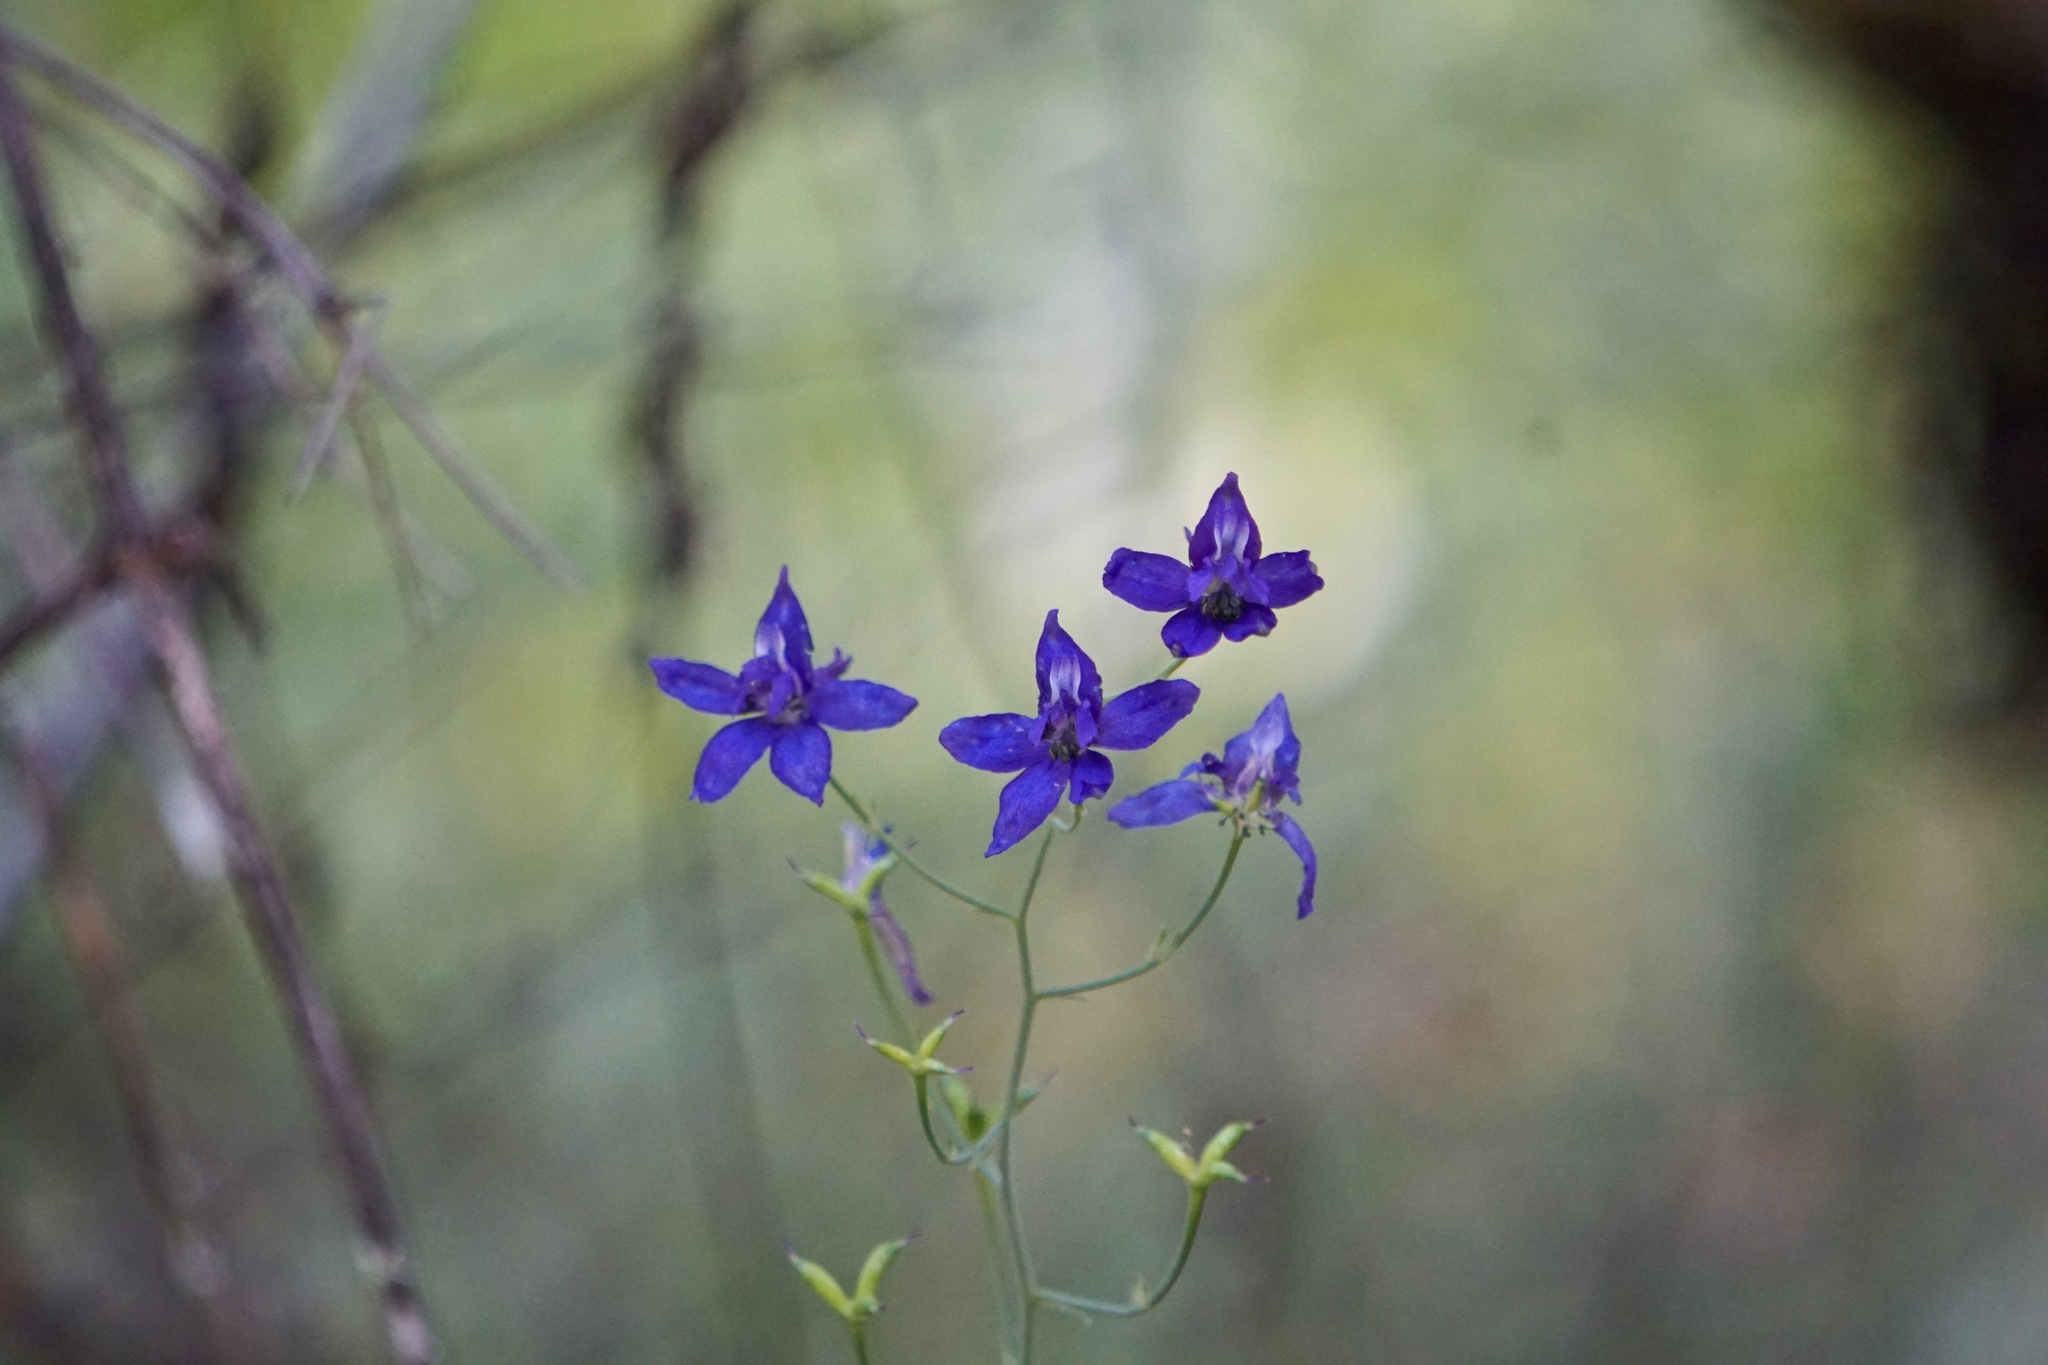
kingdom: Plantae
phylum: Tracheophyta
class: Magnoliopsida
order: Ranunculales
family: Ranunculaceae
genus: Delphinium
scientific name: Delphinium patens
